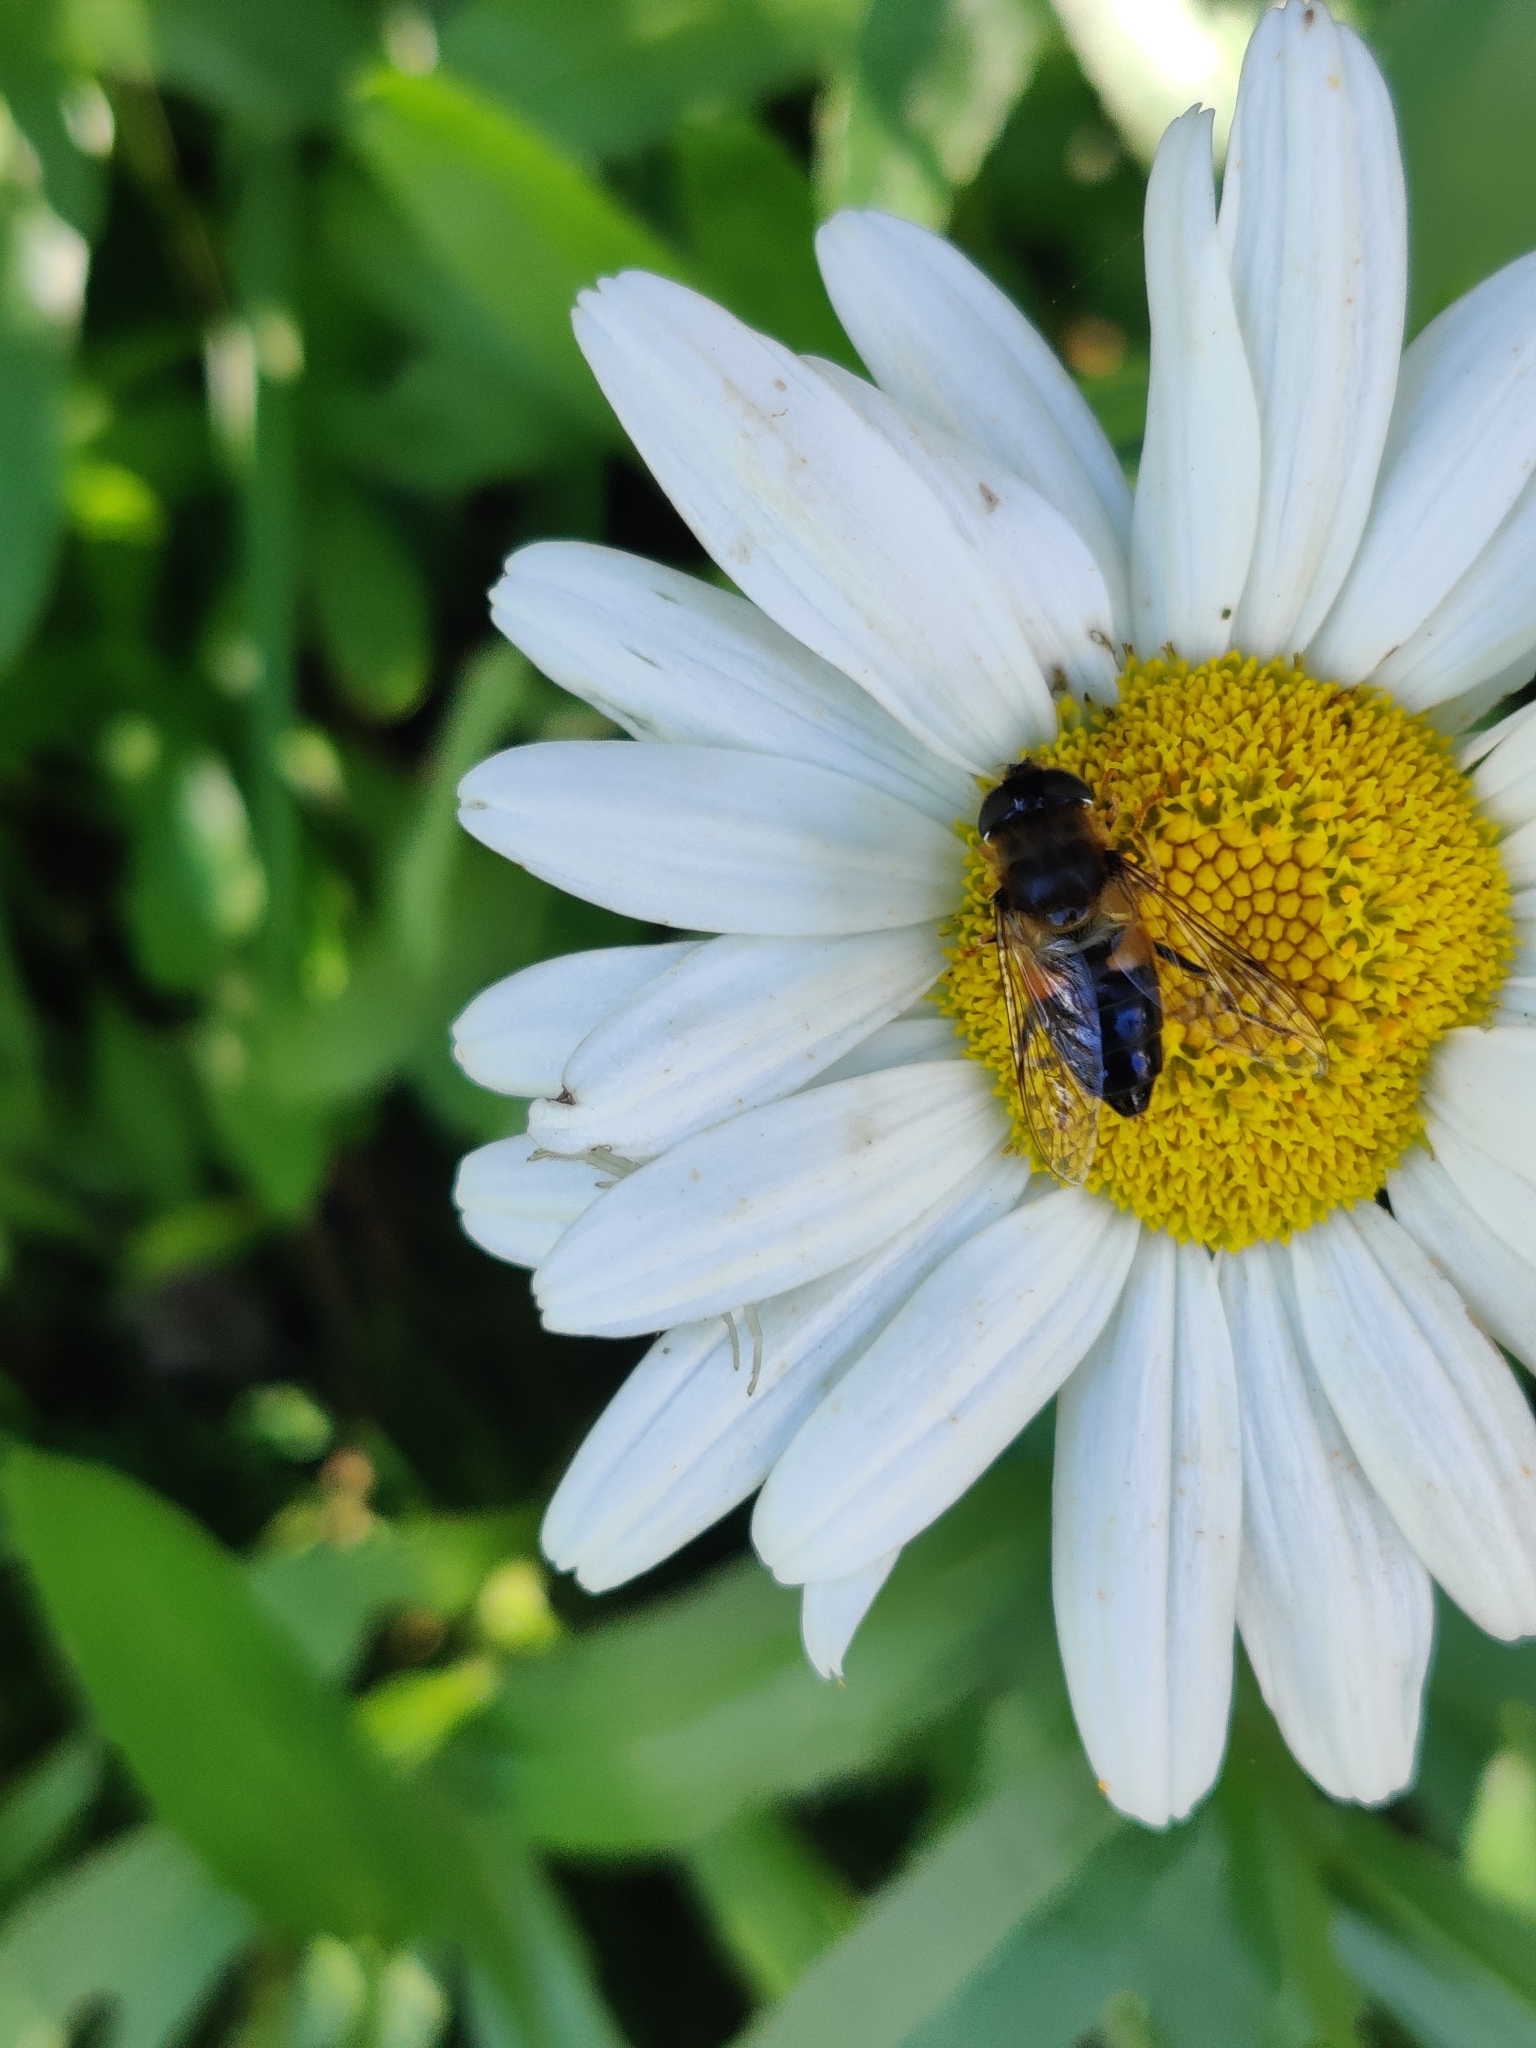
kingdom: Animalia
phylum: Arthropoda
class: Insecta
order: Diptera
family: Syrphidae
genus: Eristalis
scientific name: Eristalis pertinax
